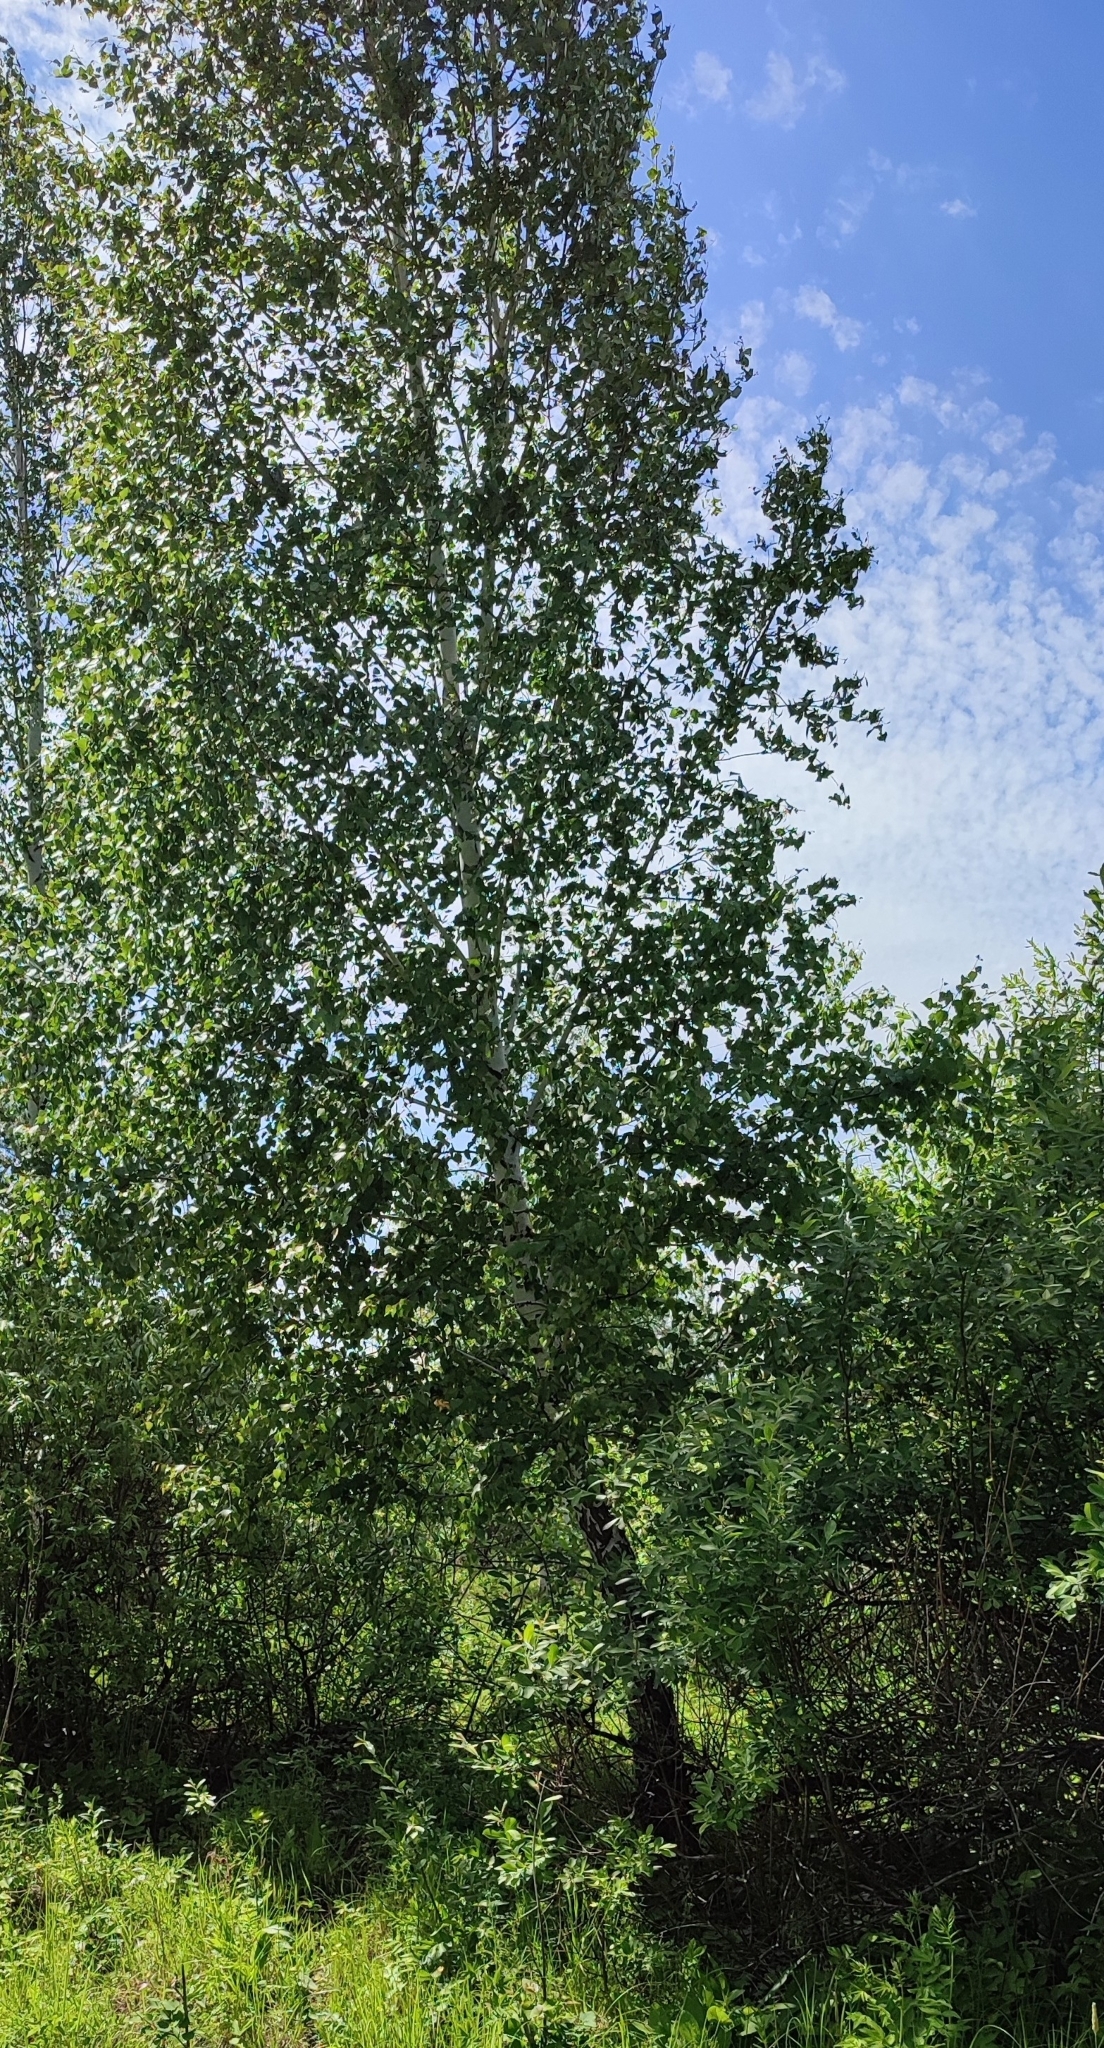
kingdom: Plantae
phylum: Tracheophyta
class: Magnoliopsida
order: Fagales
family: Betulaceae
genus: Betula
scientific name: Betula pendula
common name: Silver birch
